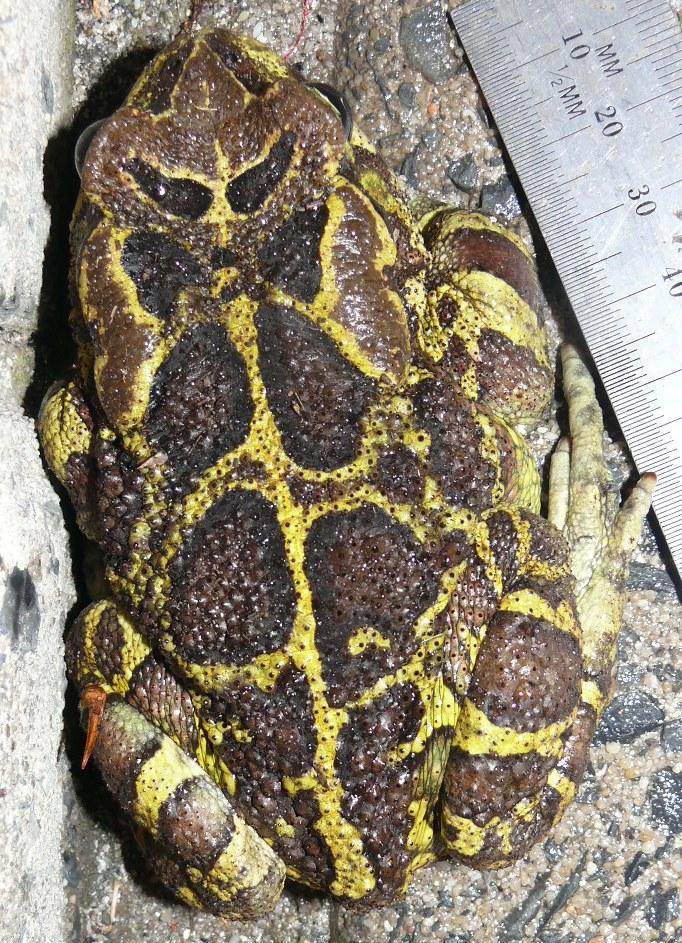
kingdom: Animalia
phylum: Chordata
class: Amphibia
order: Anura
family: Bufonidae
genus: Sclerophrys
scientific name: Sclerophrys pantherina
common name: Panther toad
